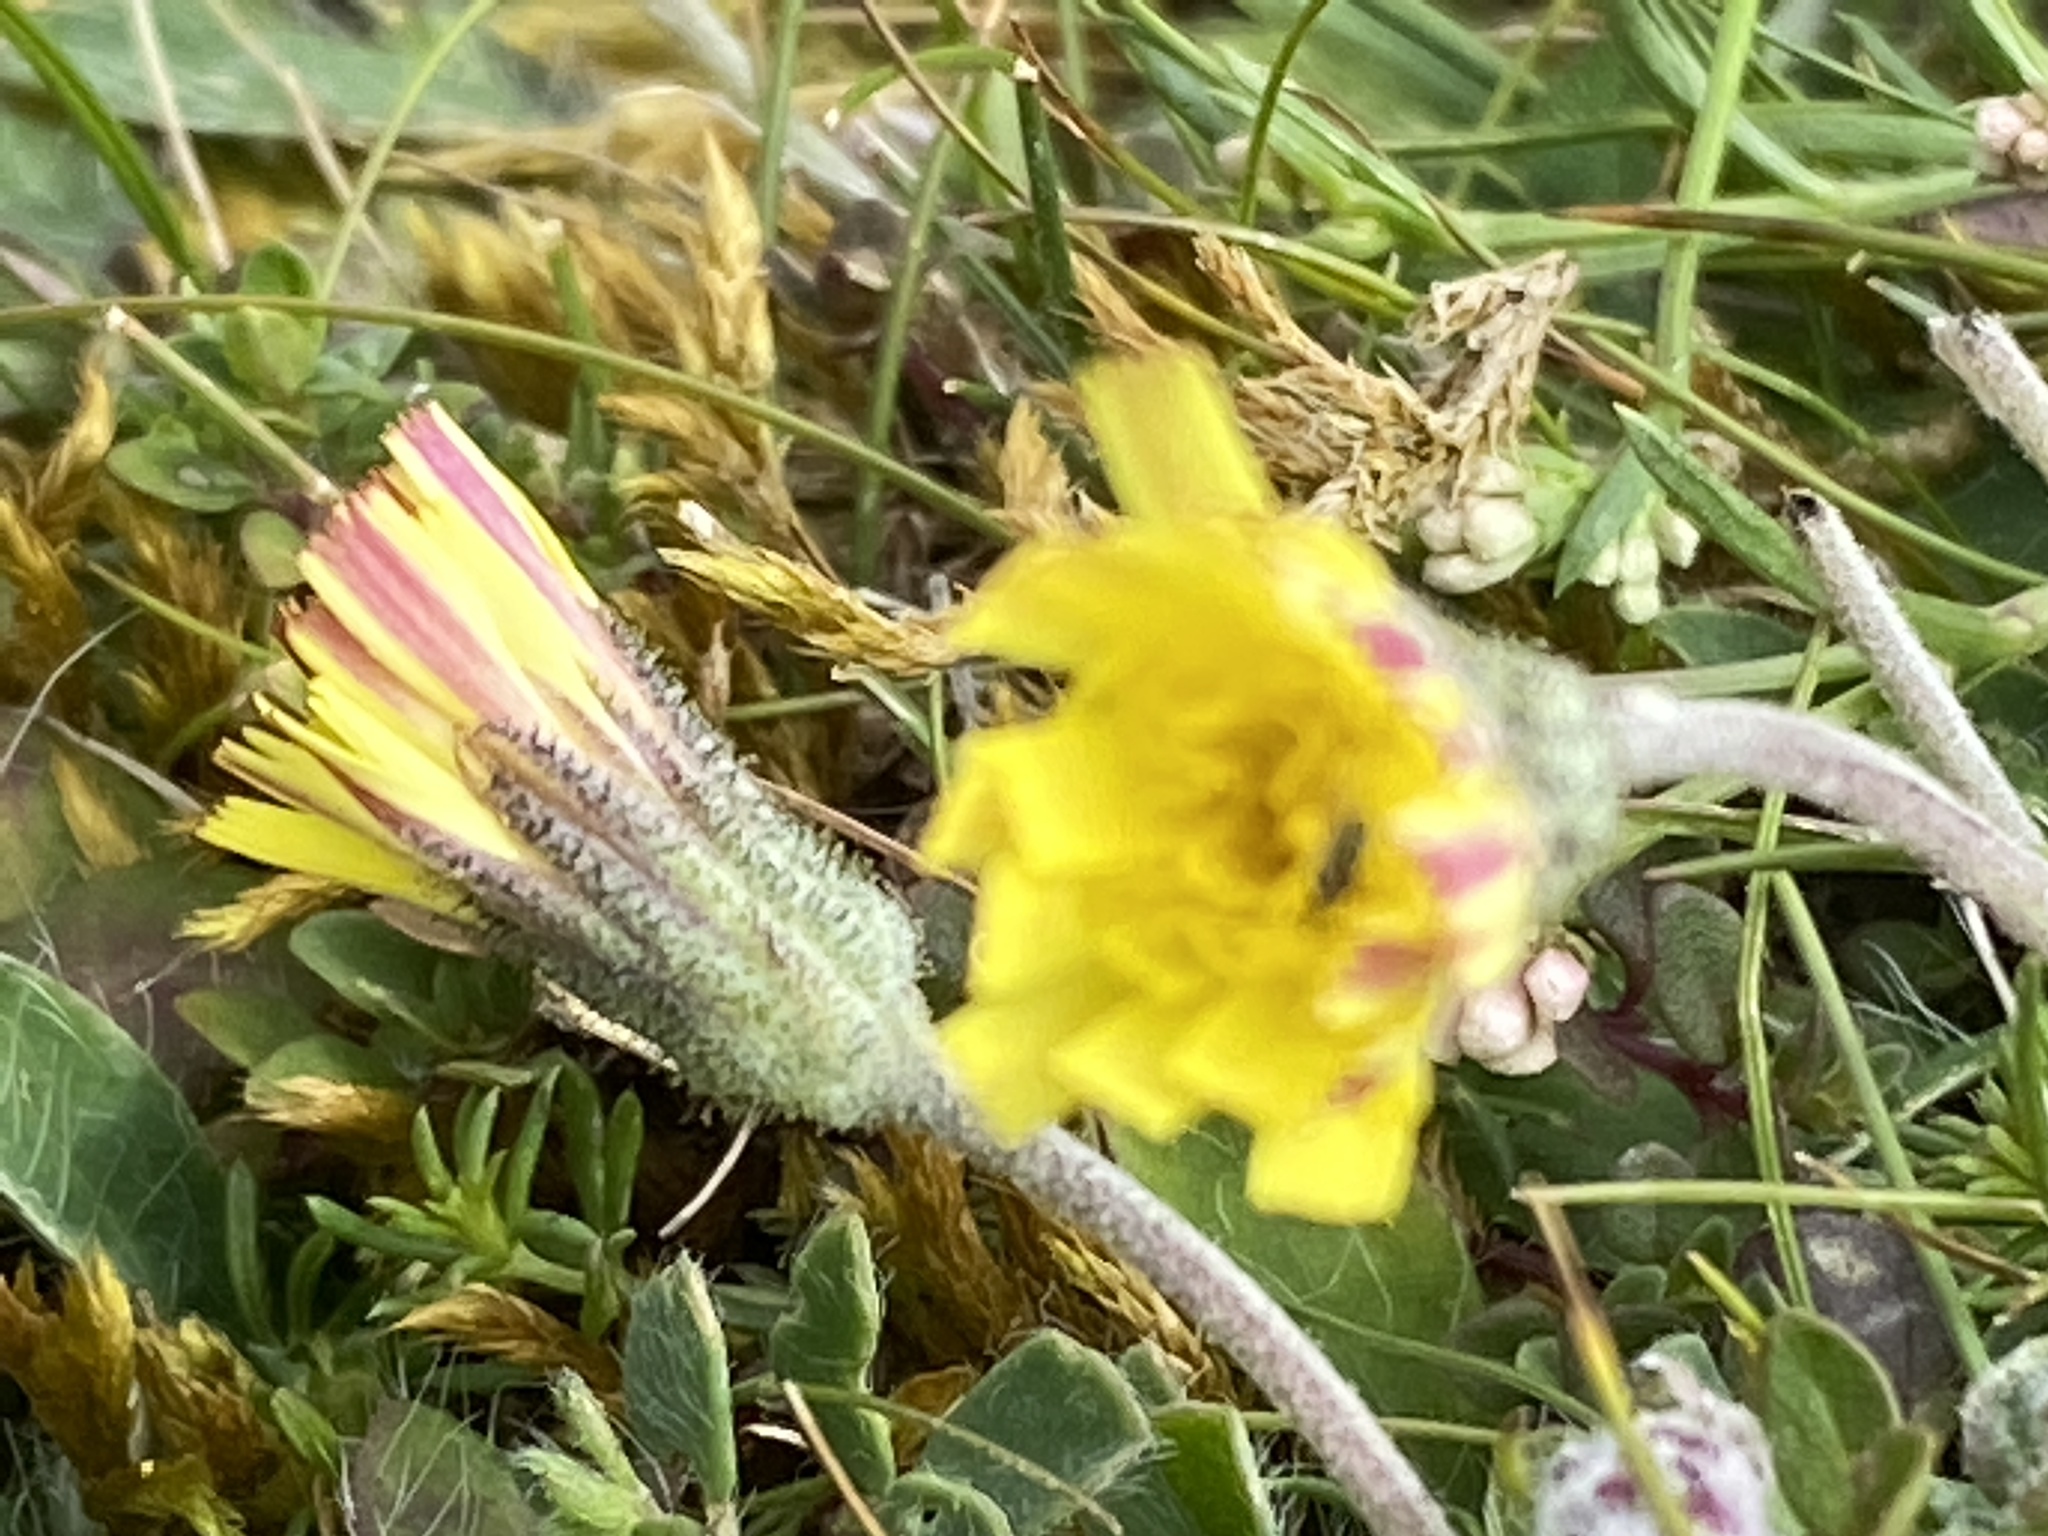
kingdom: Plantae
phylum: Tracheophyta
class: Magnoliopsida
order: Asterales
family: Asteraceae
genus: Pilosella
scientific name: Pilosella officinarum
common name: Mouse-ear hawkweed
